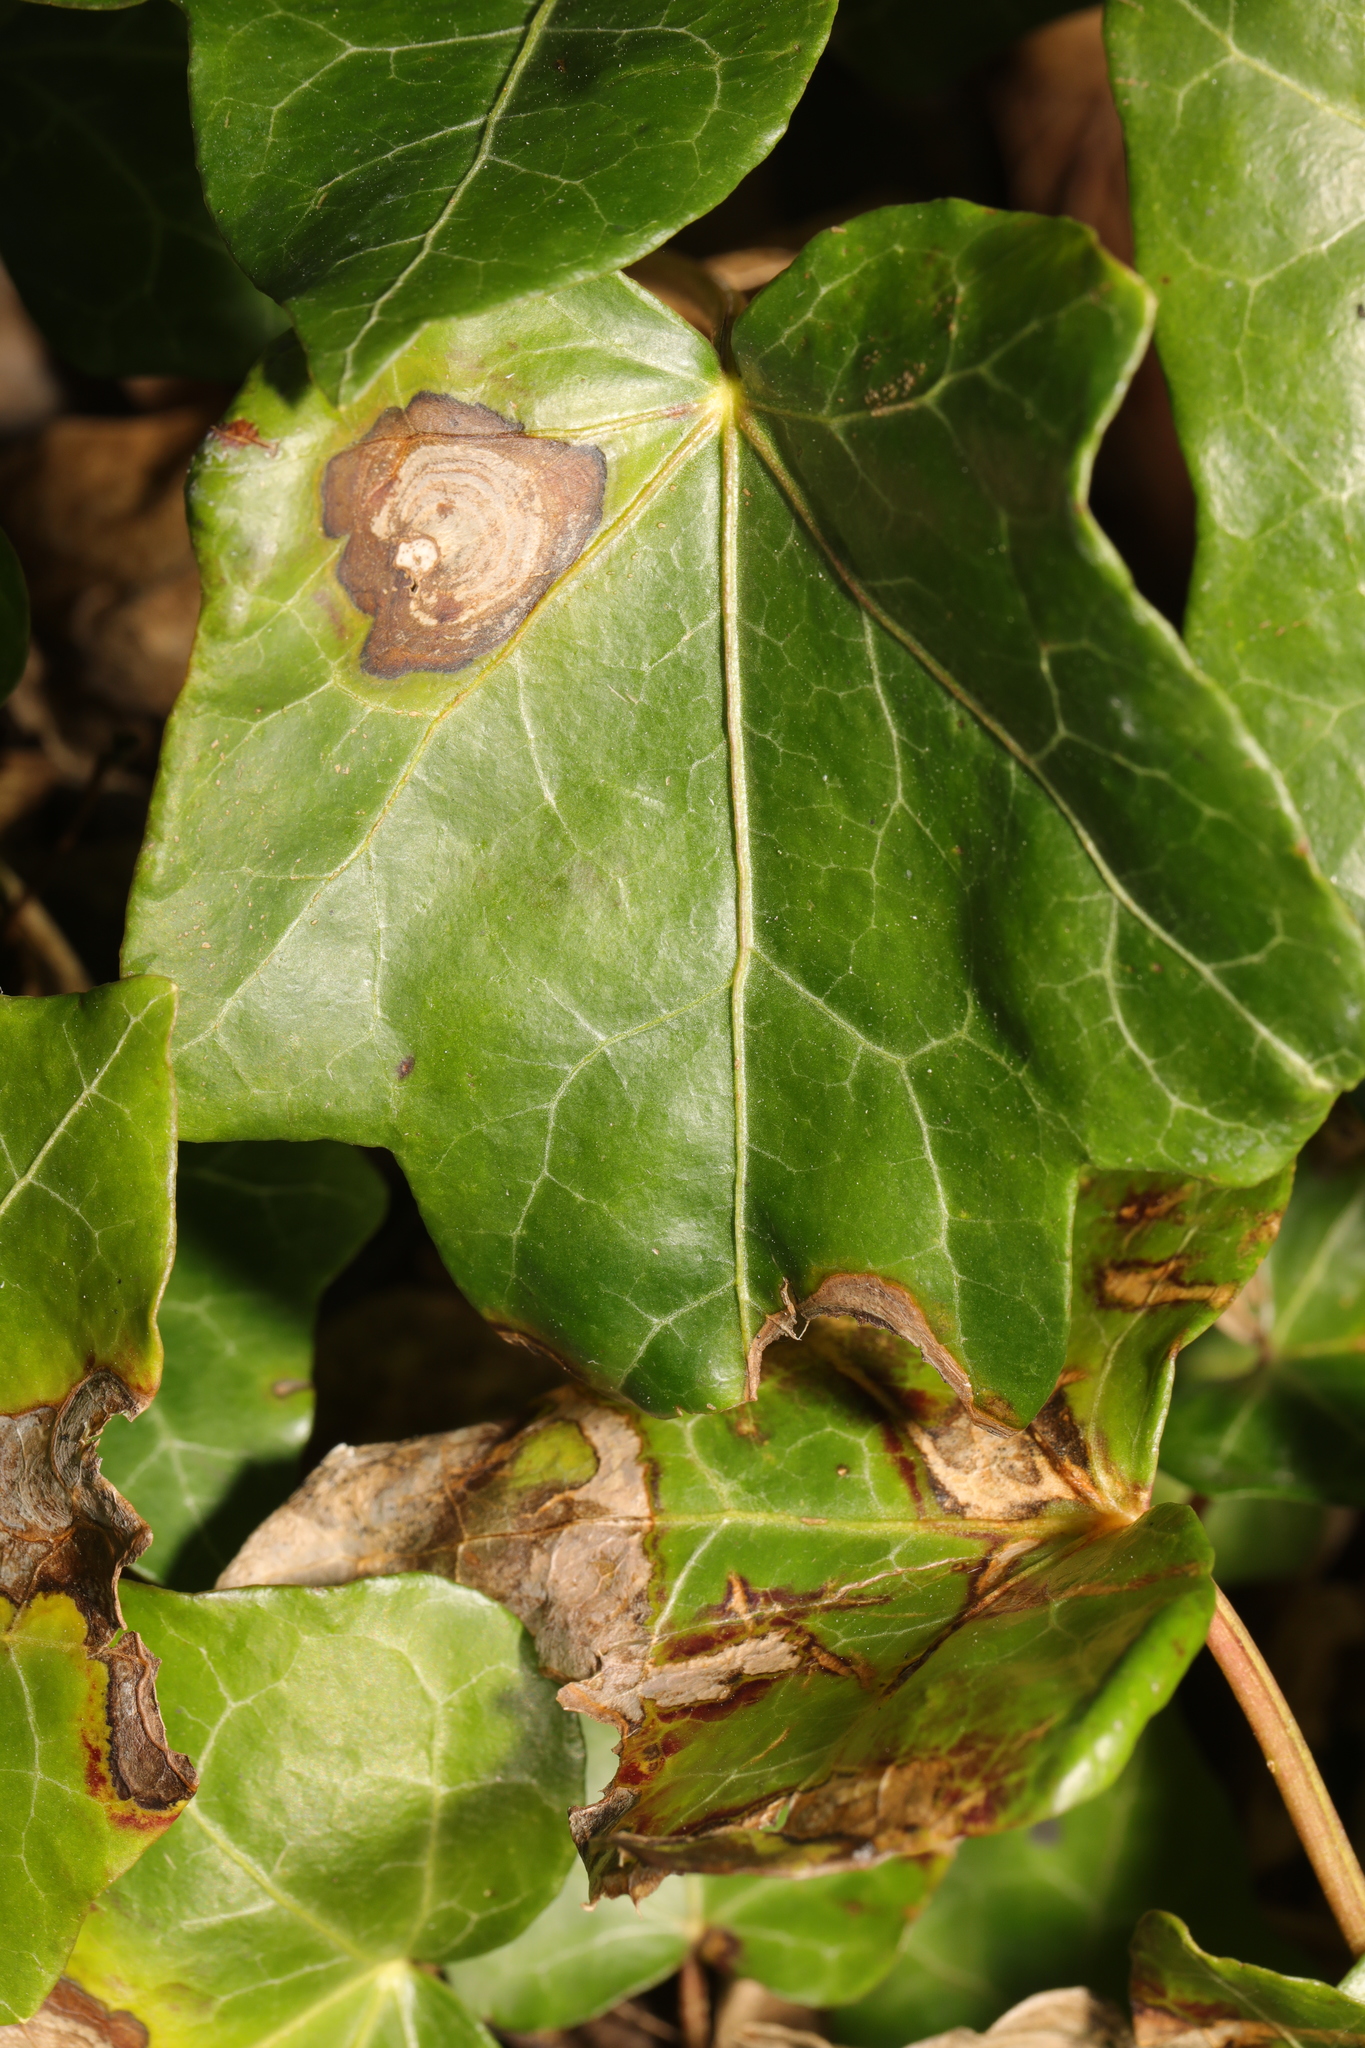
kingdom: Fungi
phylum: Ascomycota
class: Dothideomycetes
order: Pleosporales
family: Didymellaceae
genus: Boeremia
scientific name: Boeremia hedericola
